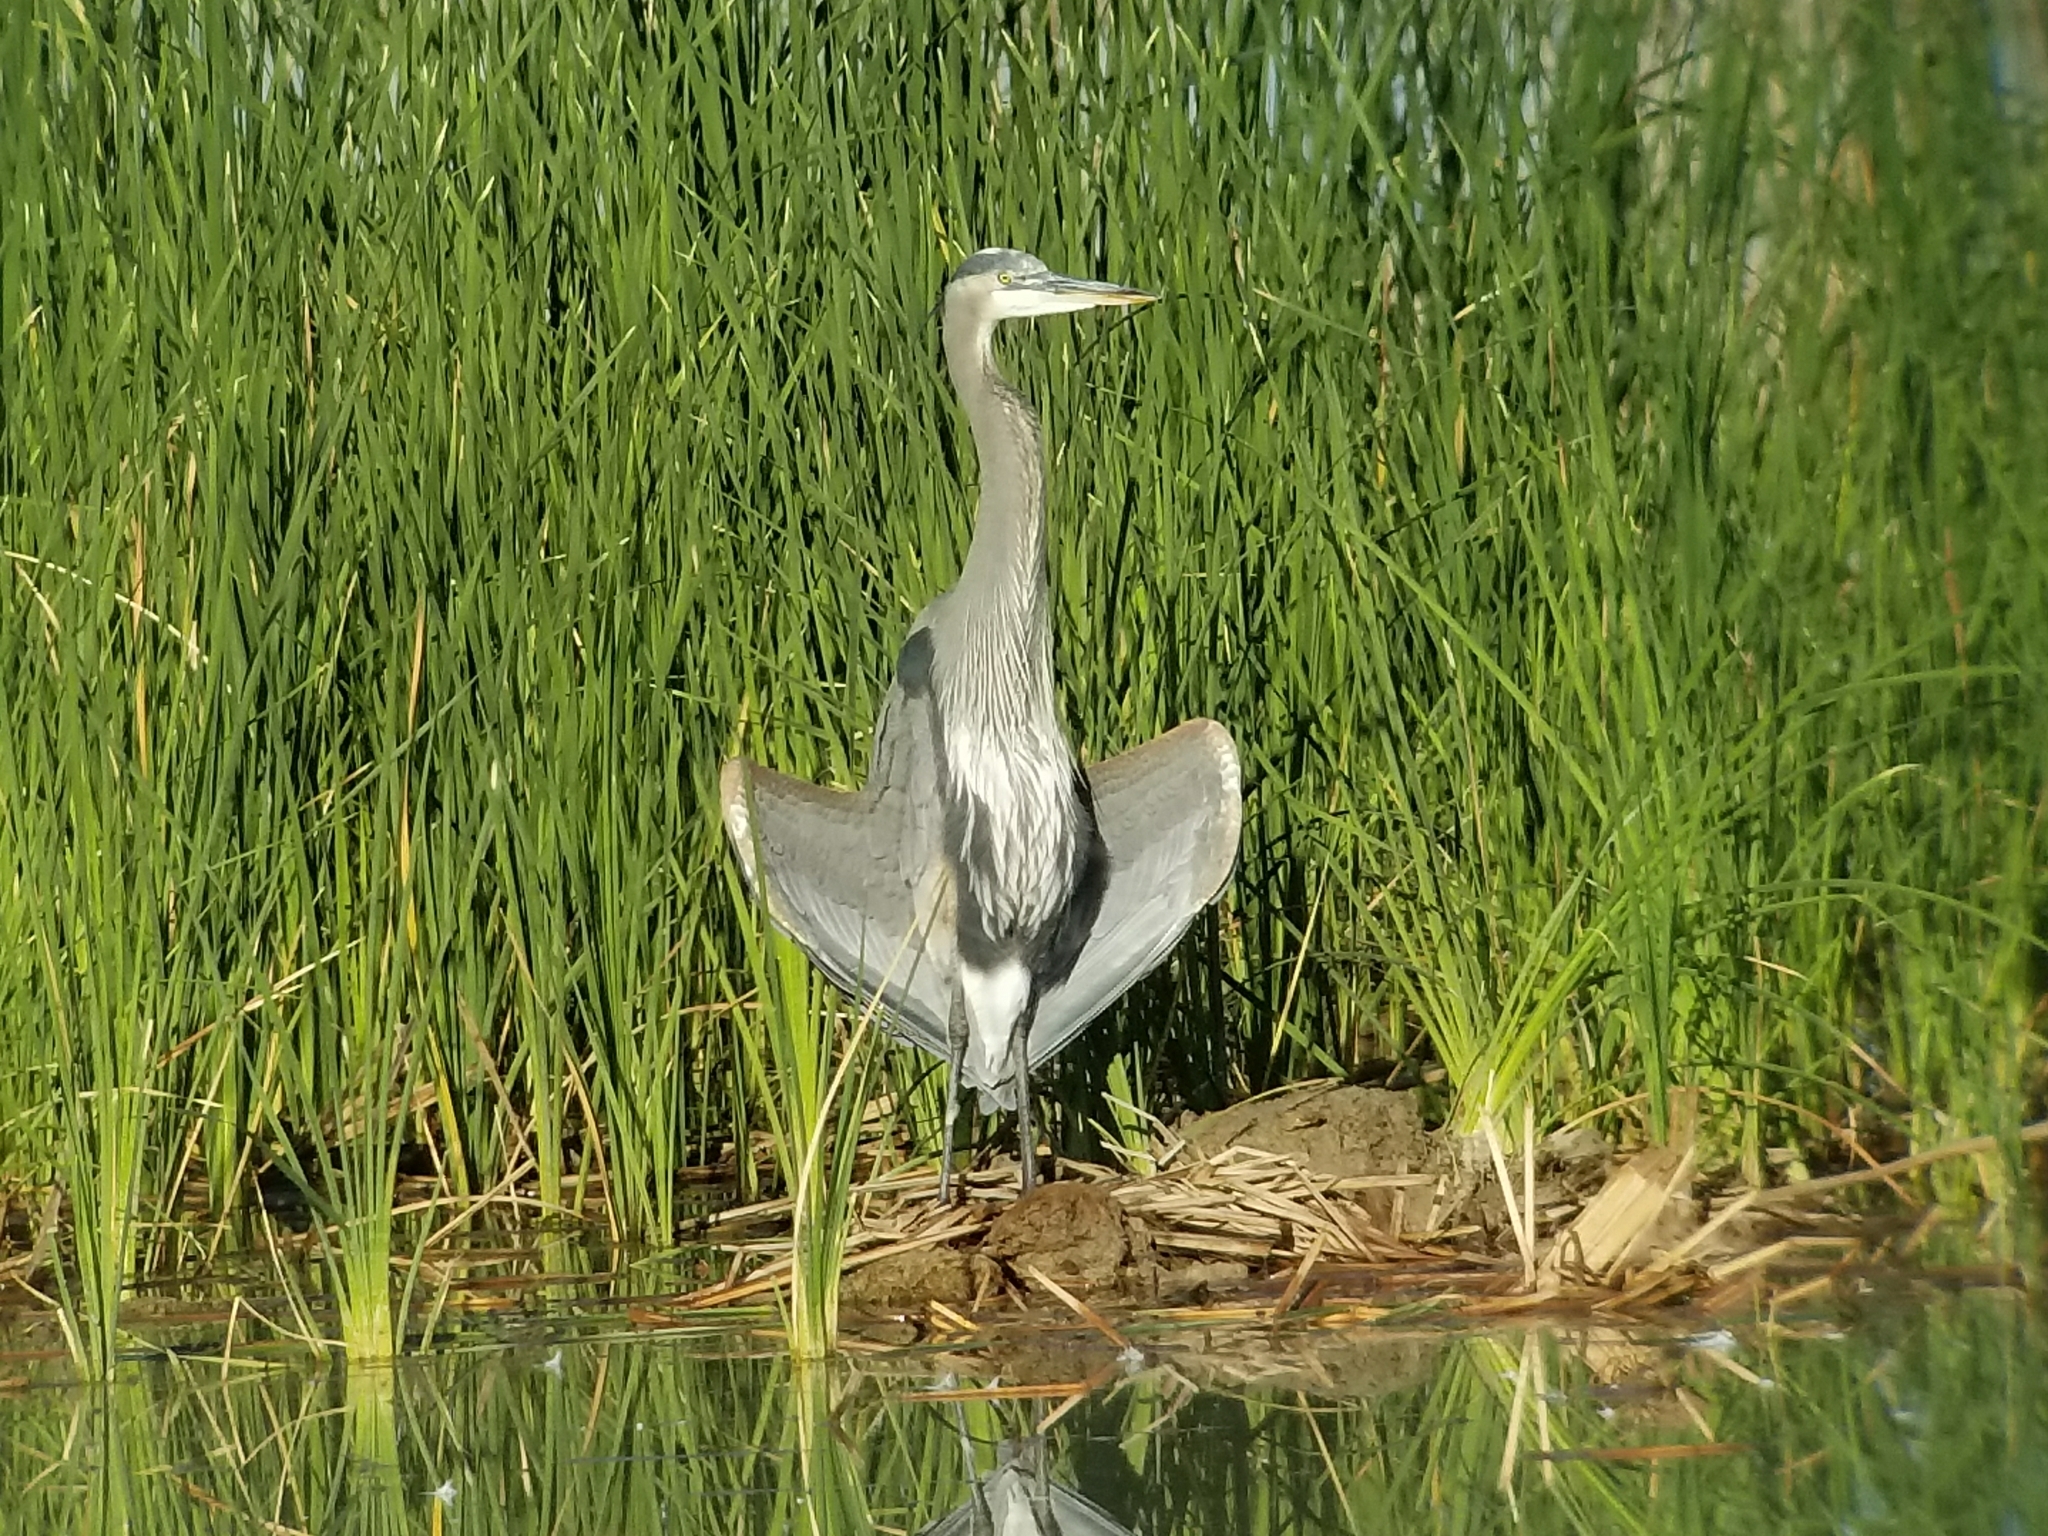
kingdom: Animalia
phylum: Chordata
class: Aves
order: Pelecaniformes
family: Ardeidae
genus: Ardea
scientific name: Ardea herodias
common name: Great blue heron
